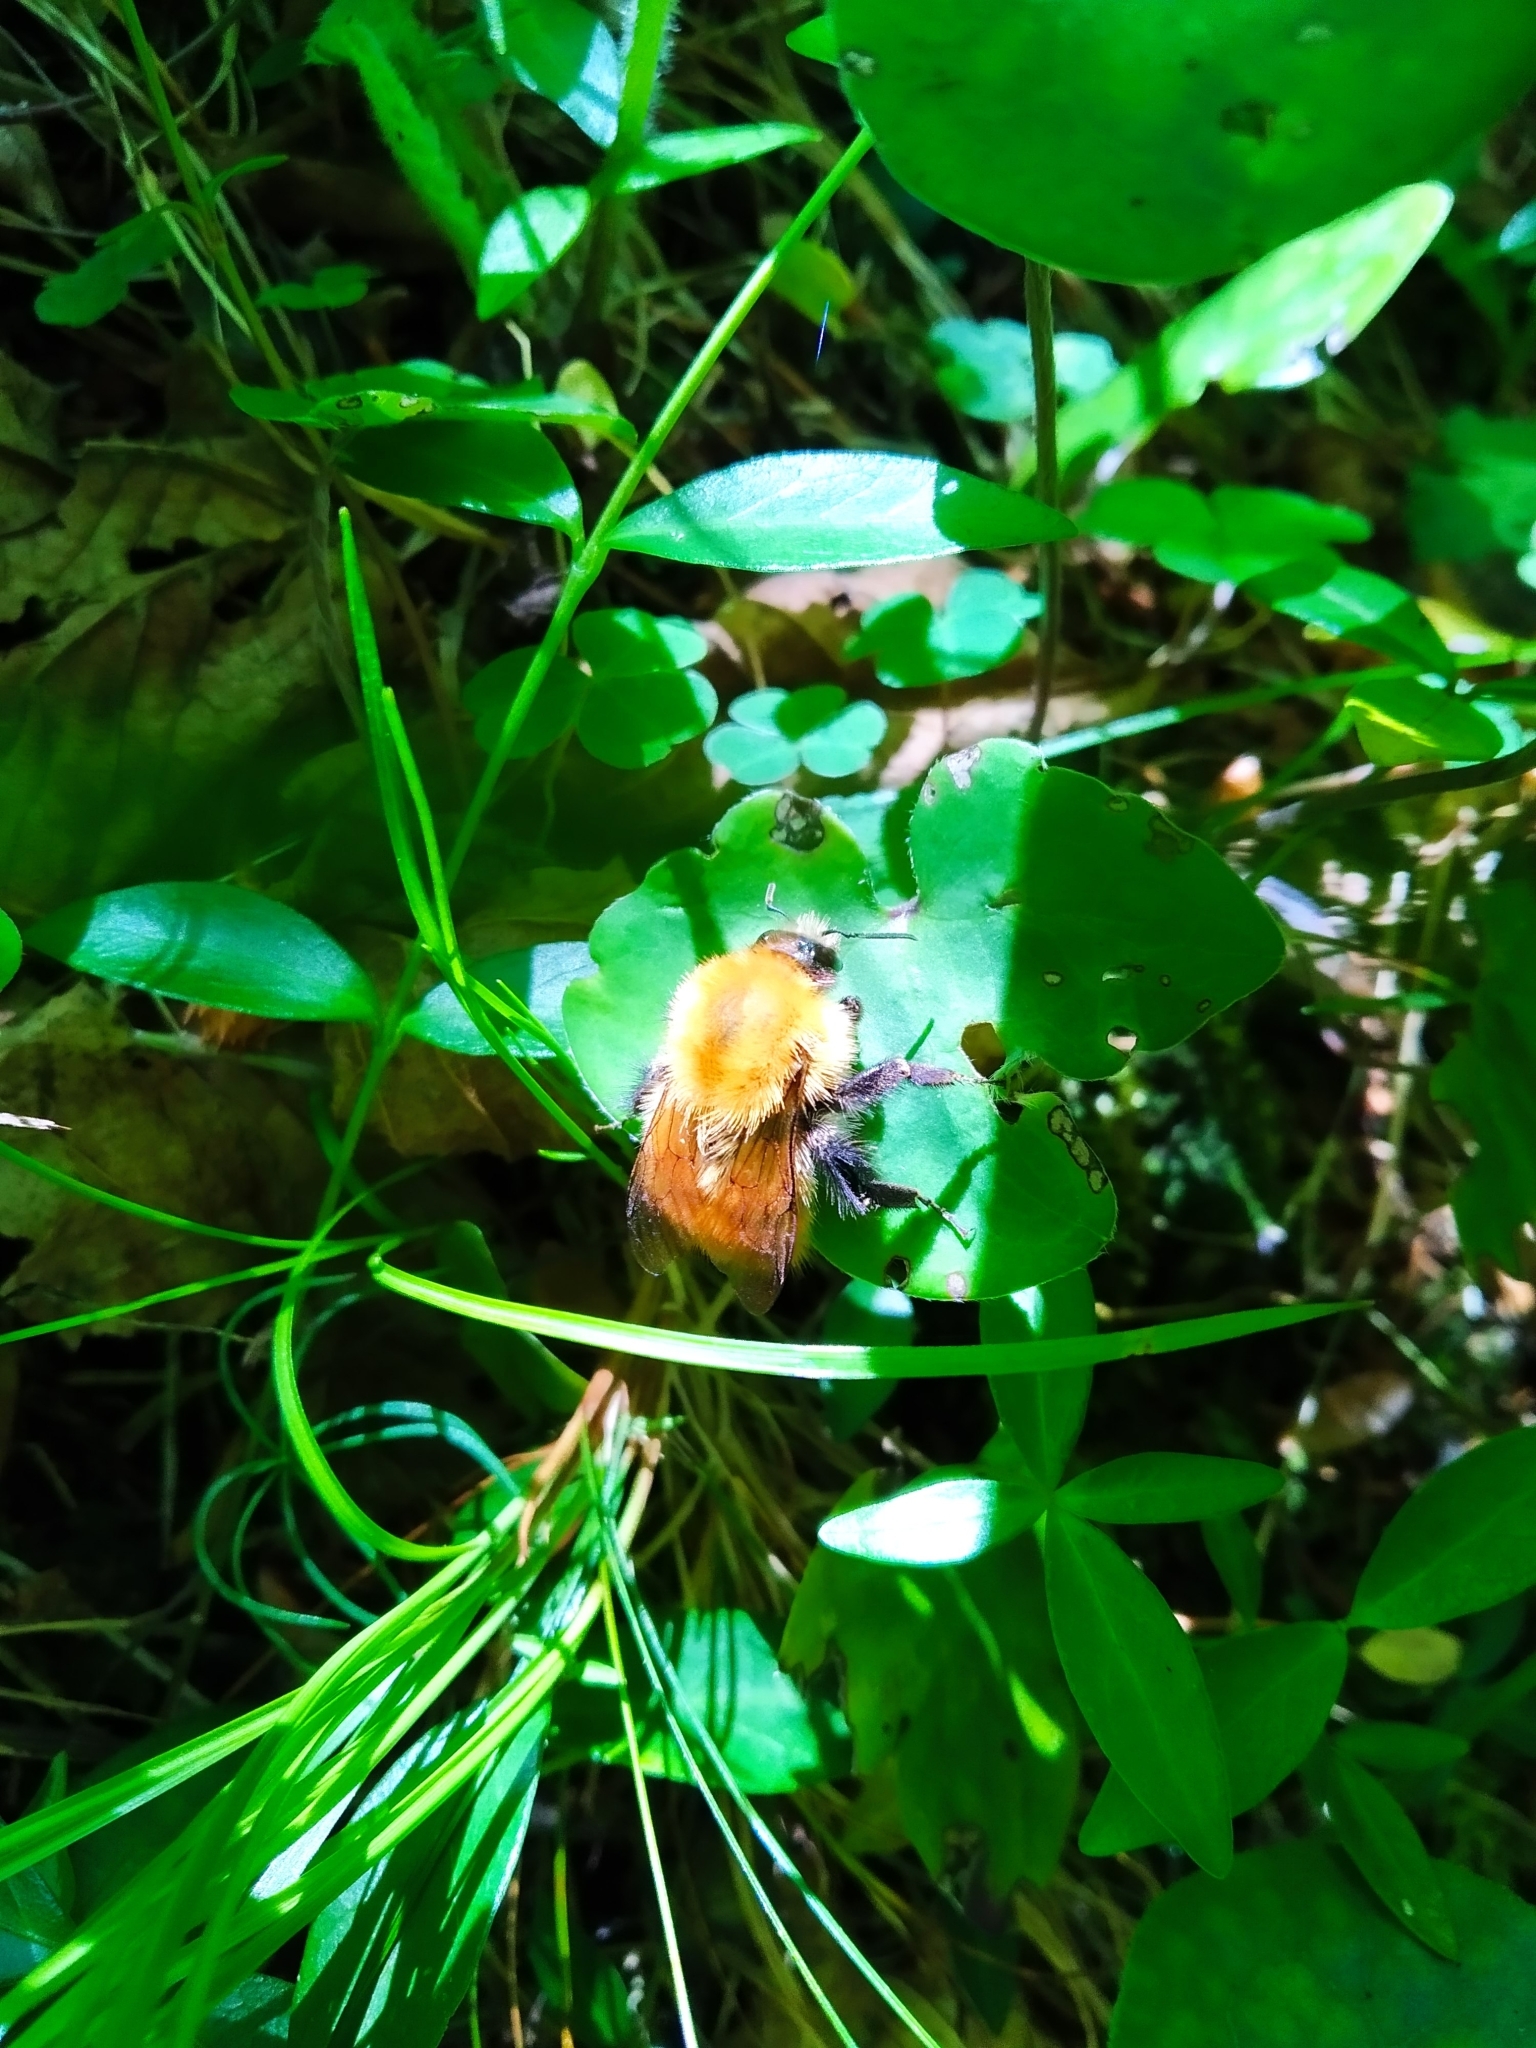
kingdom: Animalia
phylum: Arthropoda
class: Insecta
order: Hymenoptera
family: Apidae
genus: Bombus
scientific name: Bombus pascuorum
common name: Common carder bee
